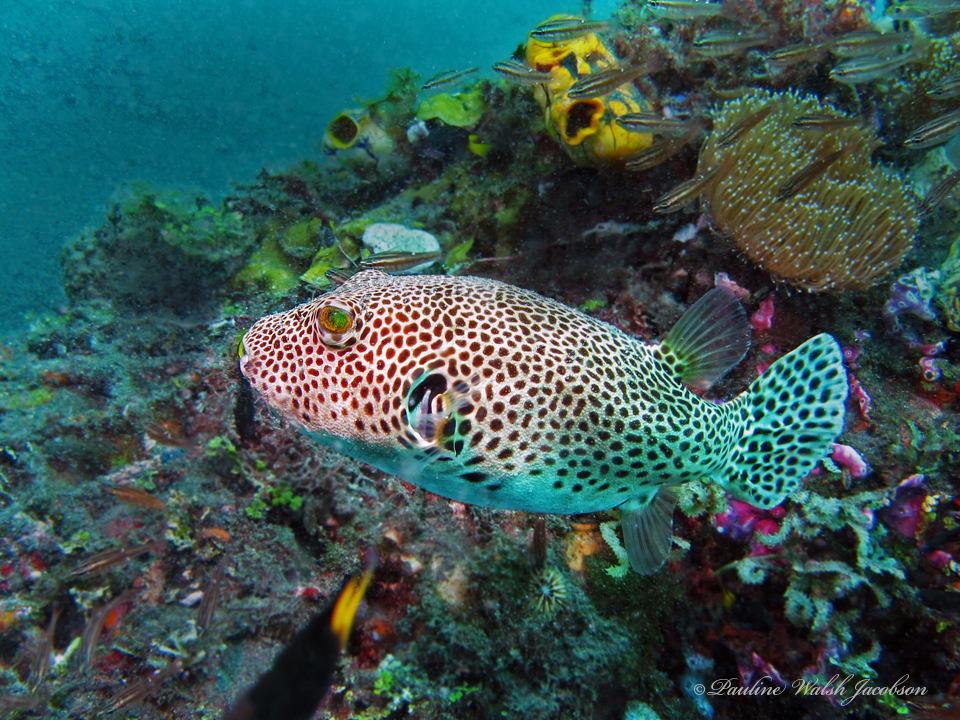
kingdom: Animalia
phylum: Chordata
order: Tetraodontiformes
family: Tetraodontidae
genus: Arothron
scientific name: Arothron stellatus
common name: Star blaasop
